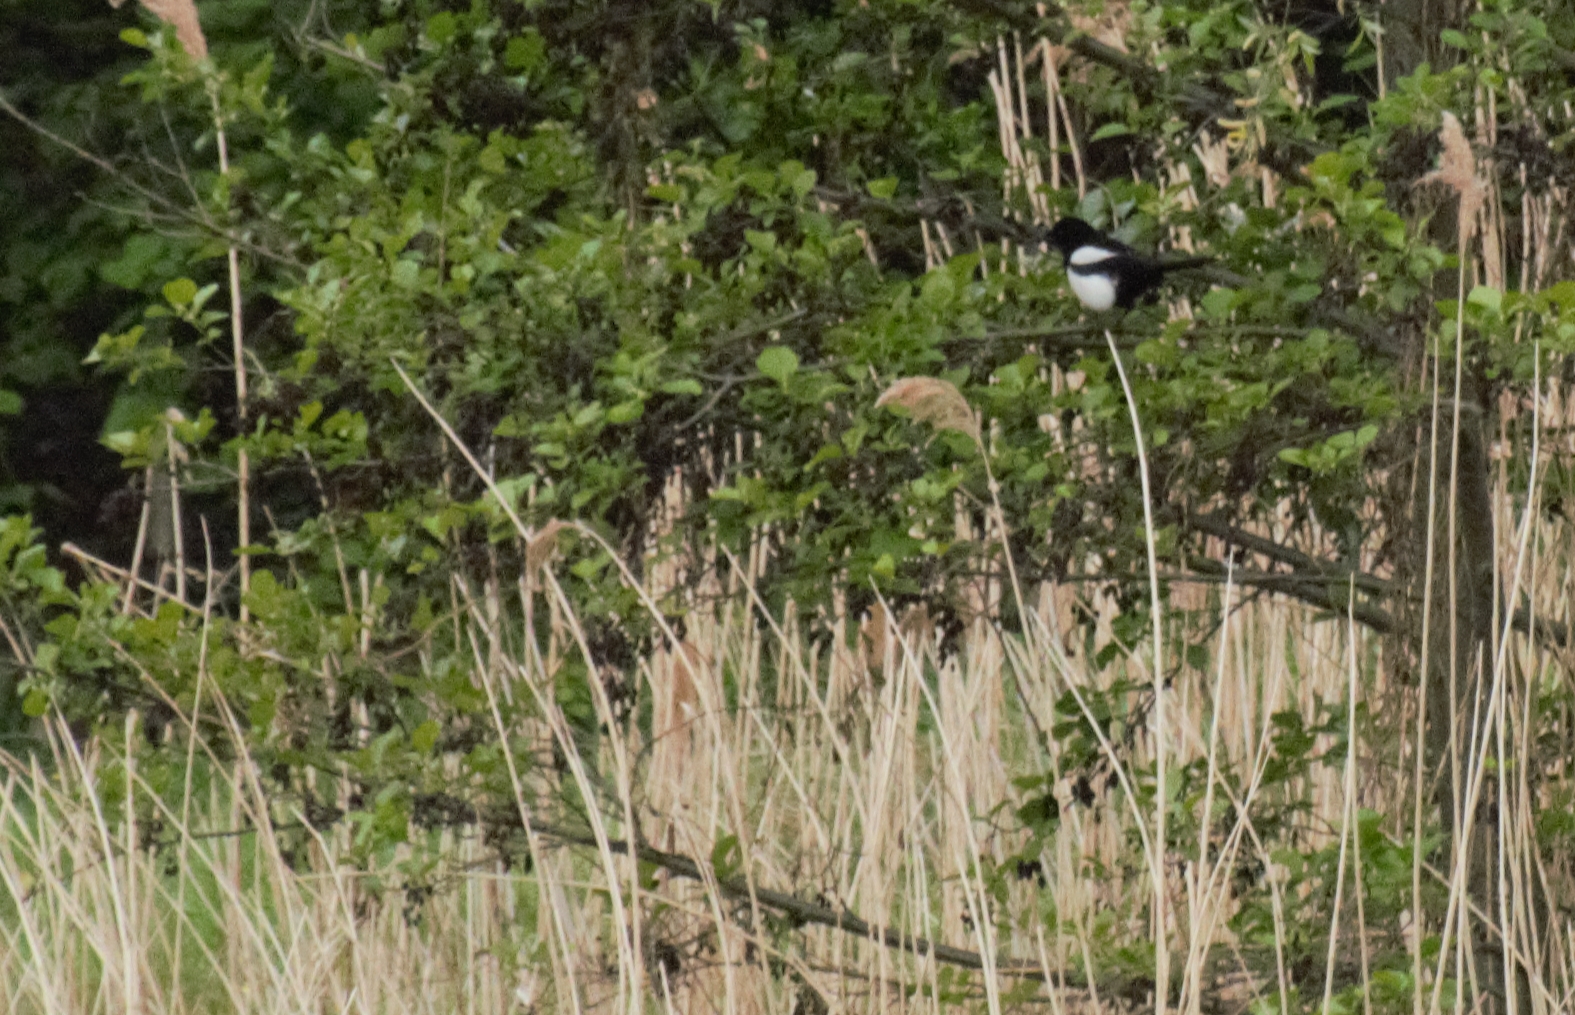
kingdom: Animalia
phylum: Chordata
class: Aves
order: Passeriformes
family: Corvidae
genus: Pica
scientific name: Pica pica
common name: Eurasian magpie
